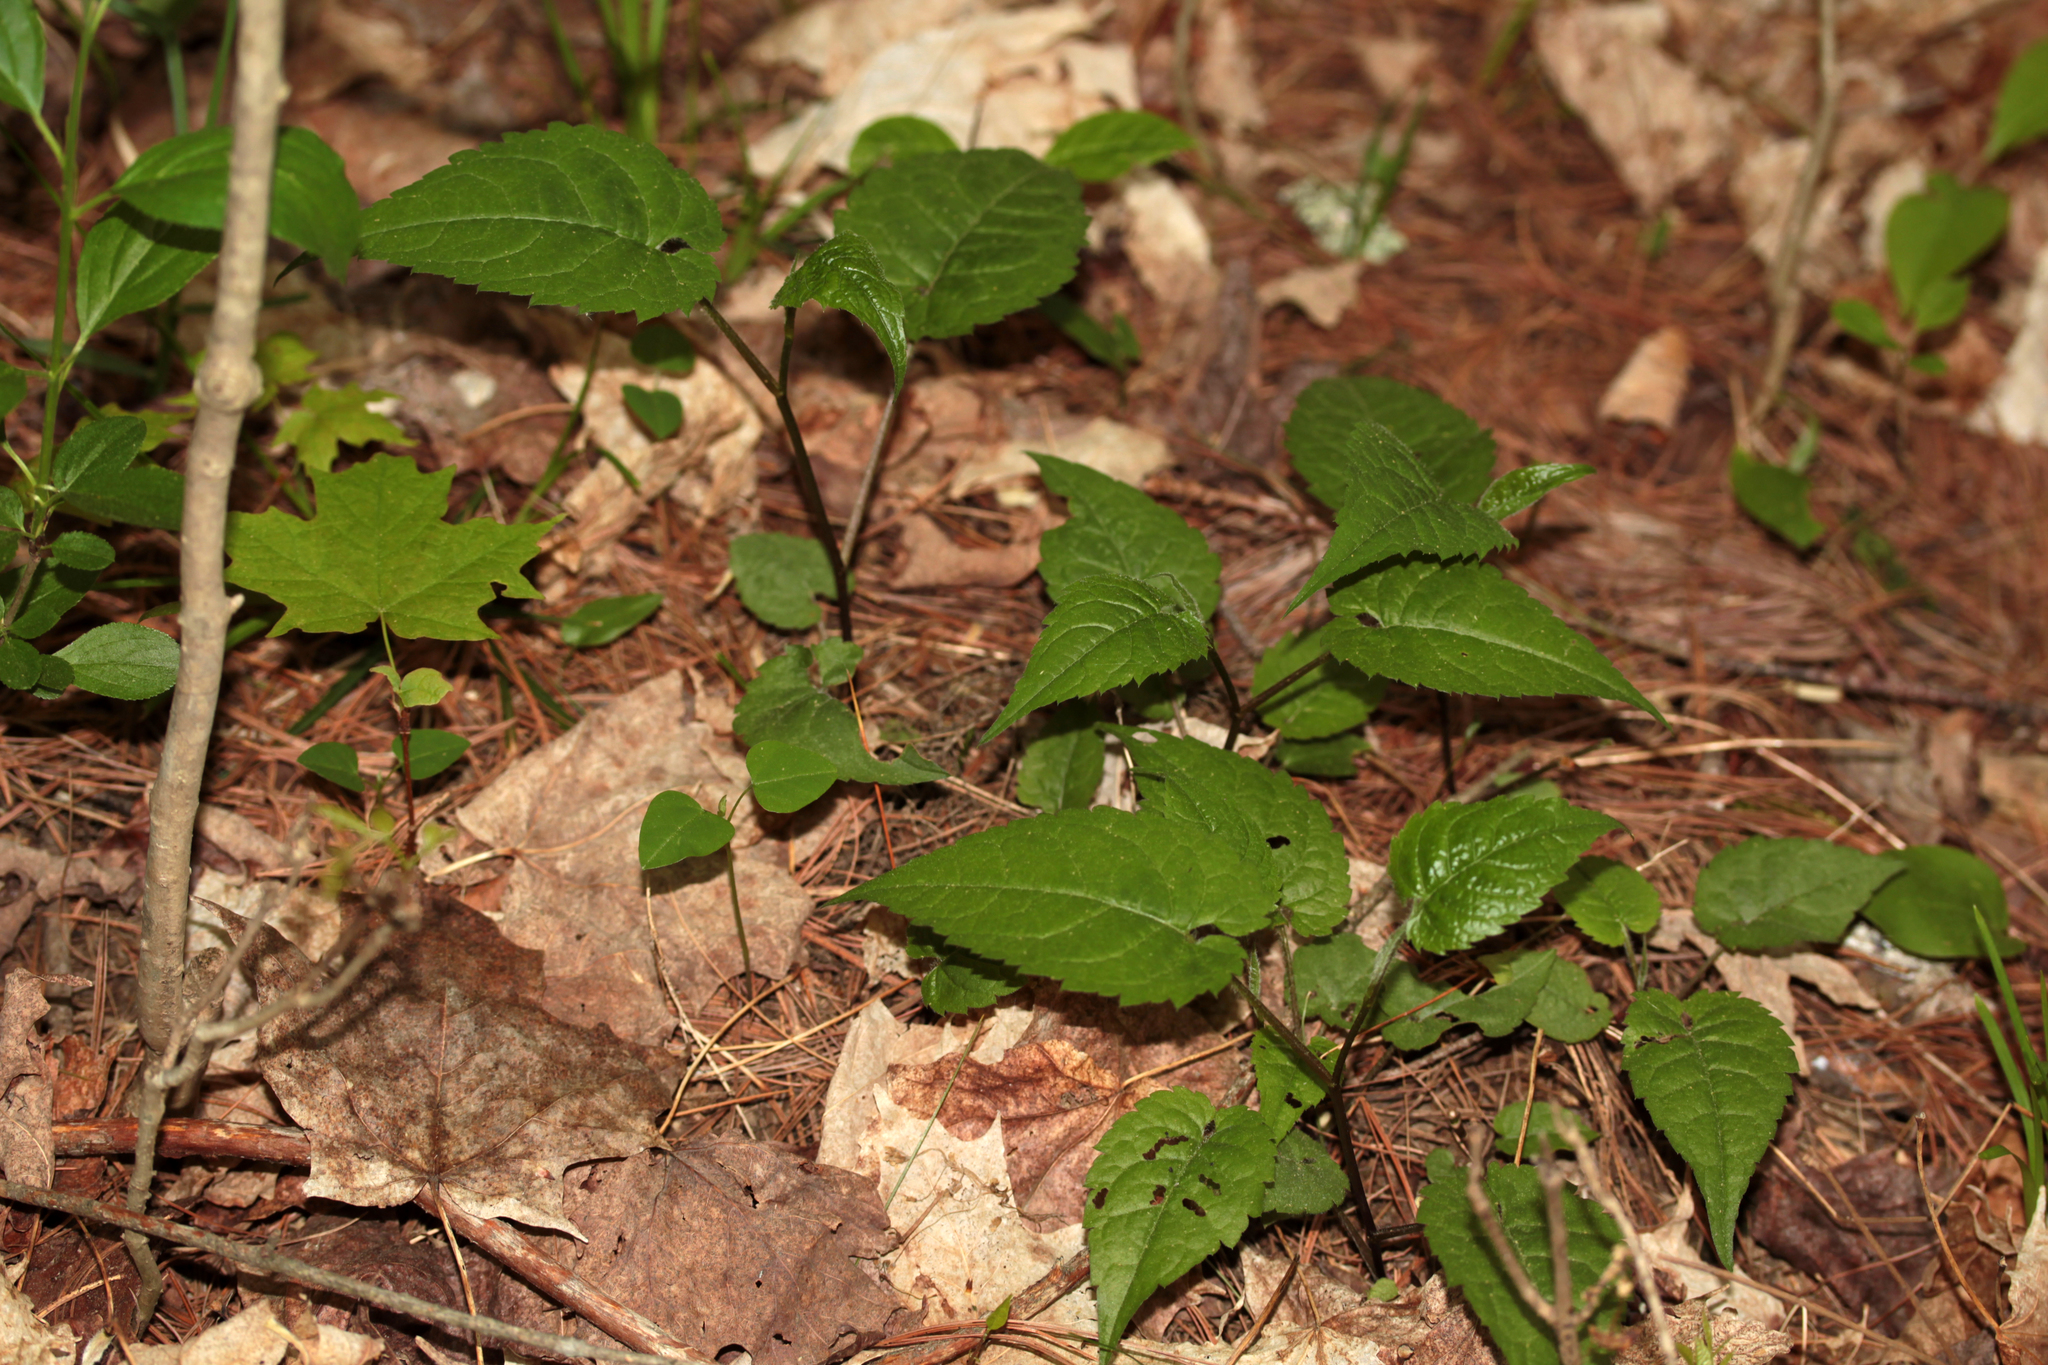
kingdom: Plantae
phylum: Tracheophyta
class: Magnoliopsida
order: Asterales
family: Asteraceae
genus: Eurybia
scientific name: Eurybia macrophylla
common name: Big-leaved aster
